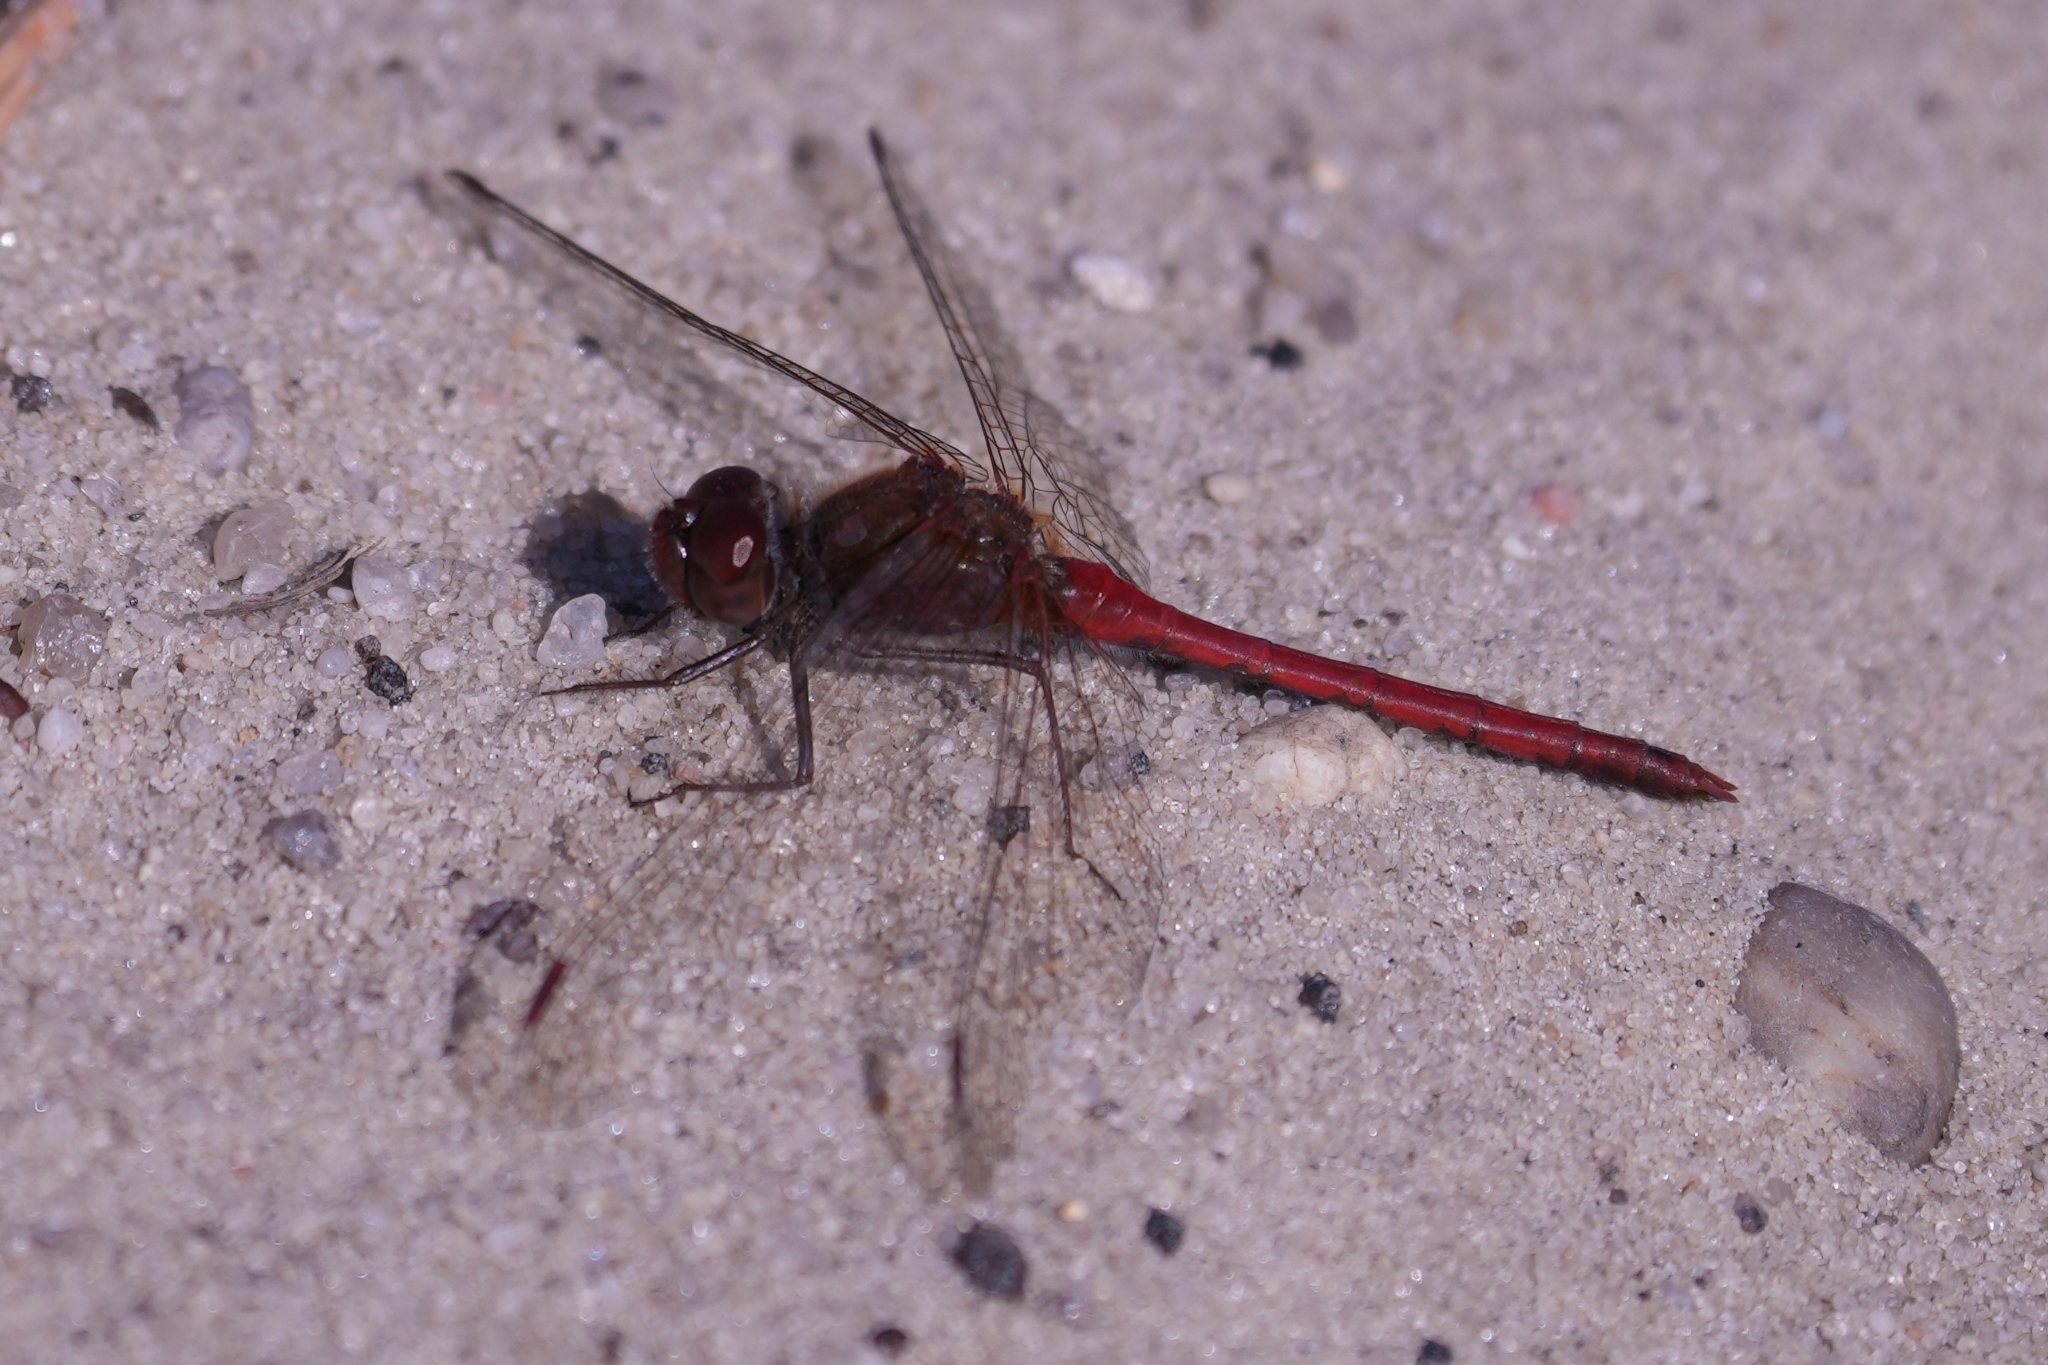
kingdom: Animalia
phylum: Arthropoda
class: Insecta
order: Odonata
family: Libellulidae
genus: Sympetrum
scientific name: Sympetrum vicinum
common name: Autumn meadowhawk
